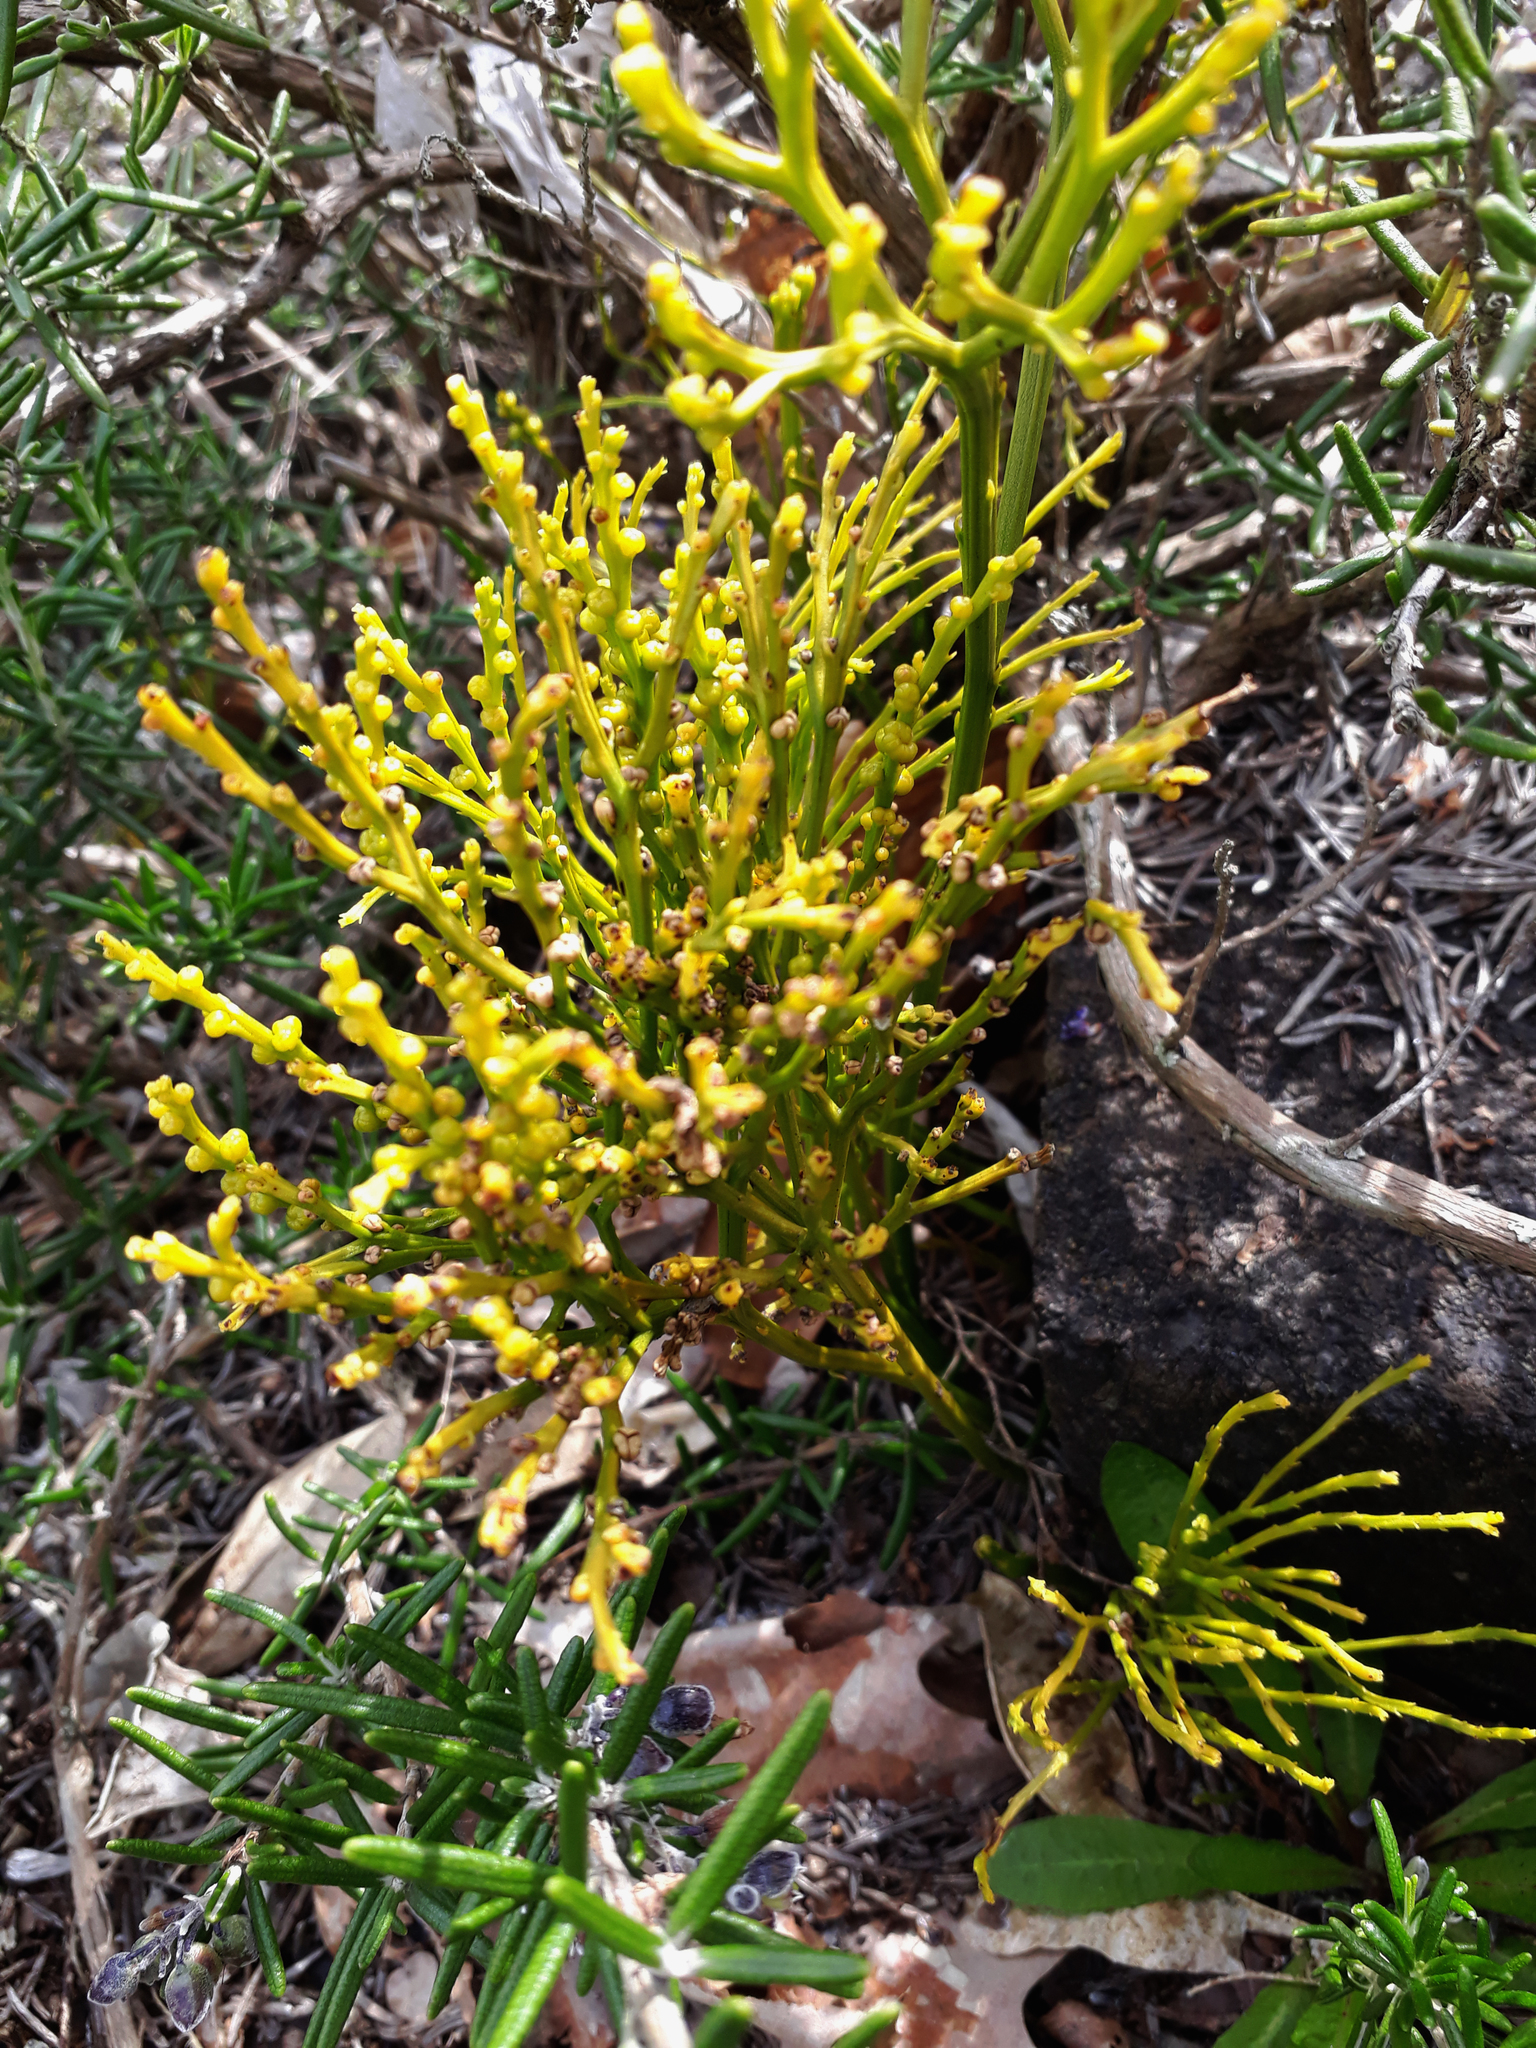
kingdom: Plantae
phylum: Tracheophyta
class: Polypodiopsida
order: Psilotales
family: Psilotaceae
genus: Psilotum
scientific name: Psilotum nudum
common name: Skeleton fork fern
